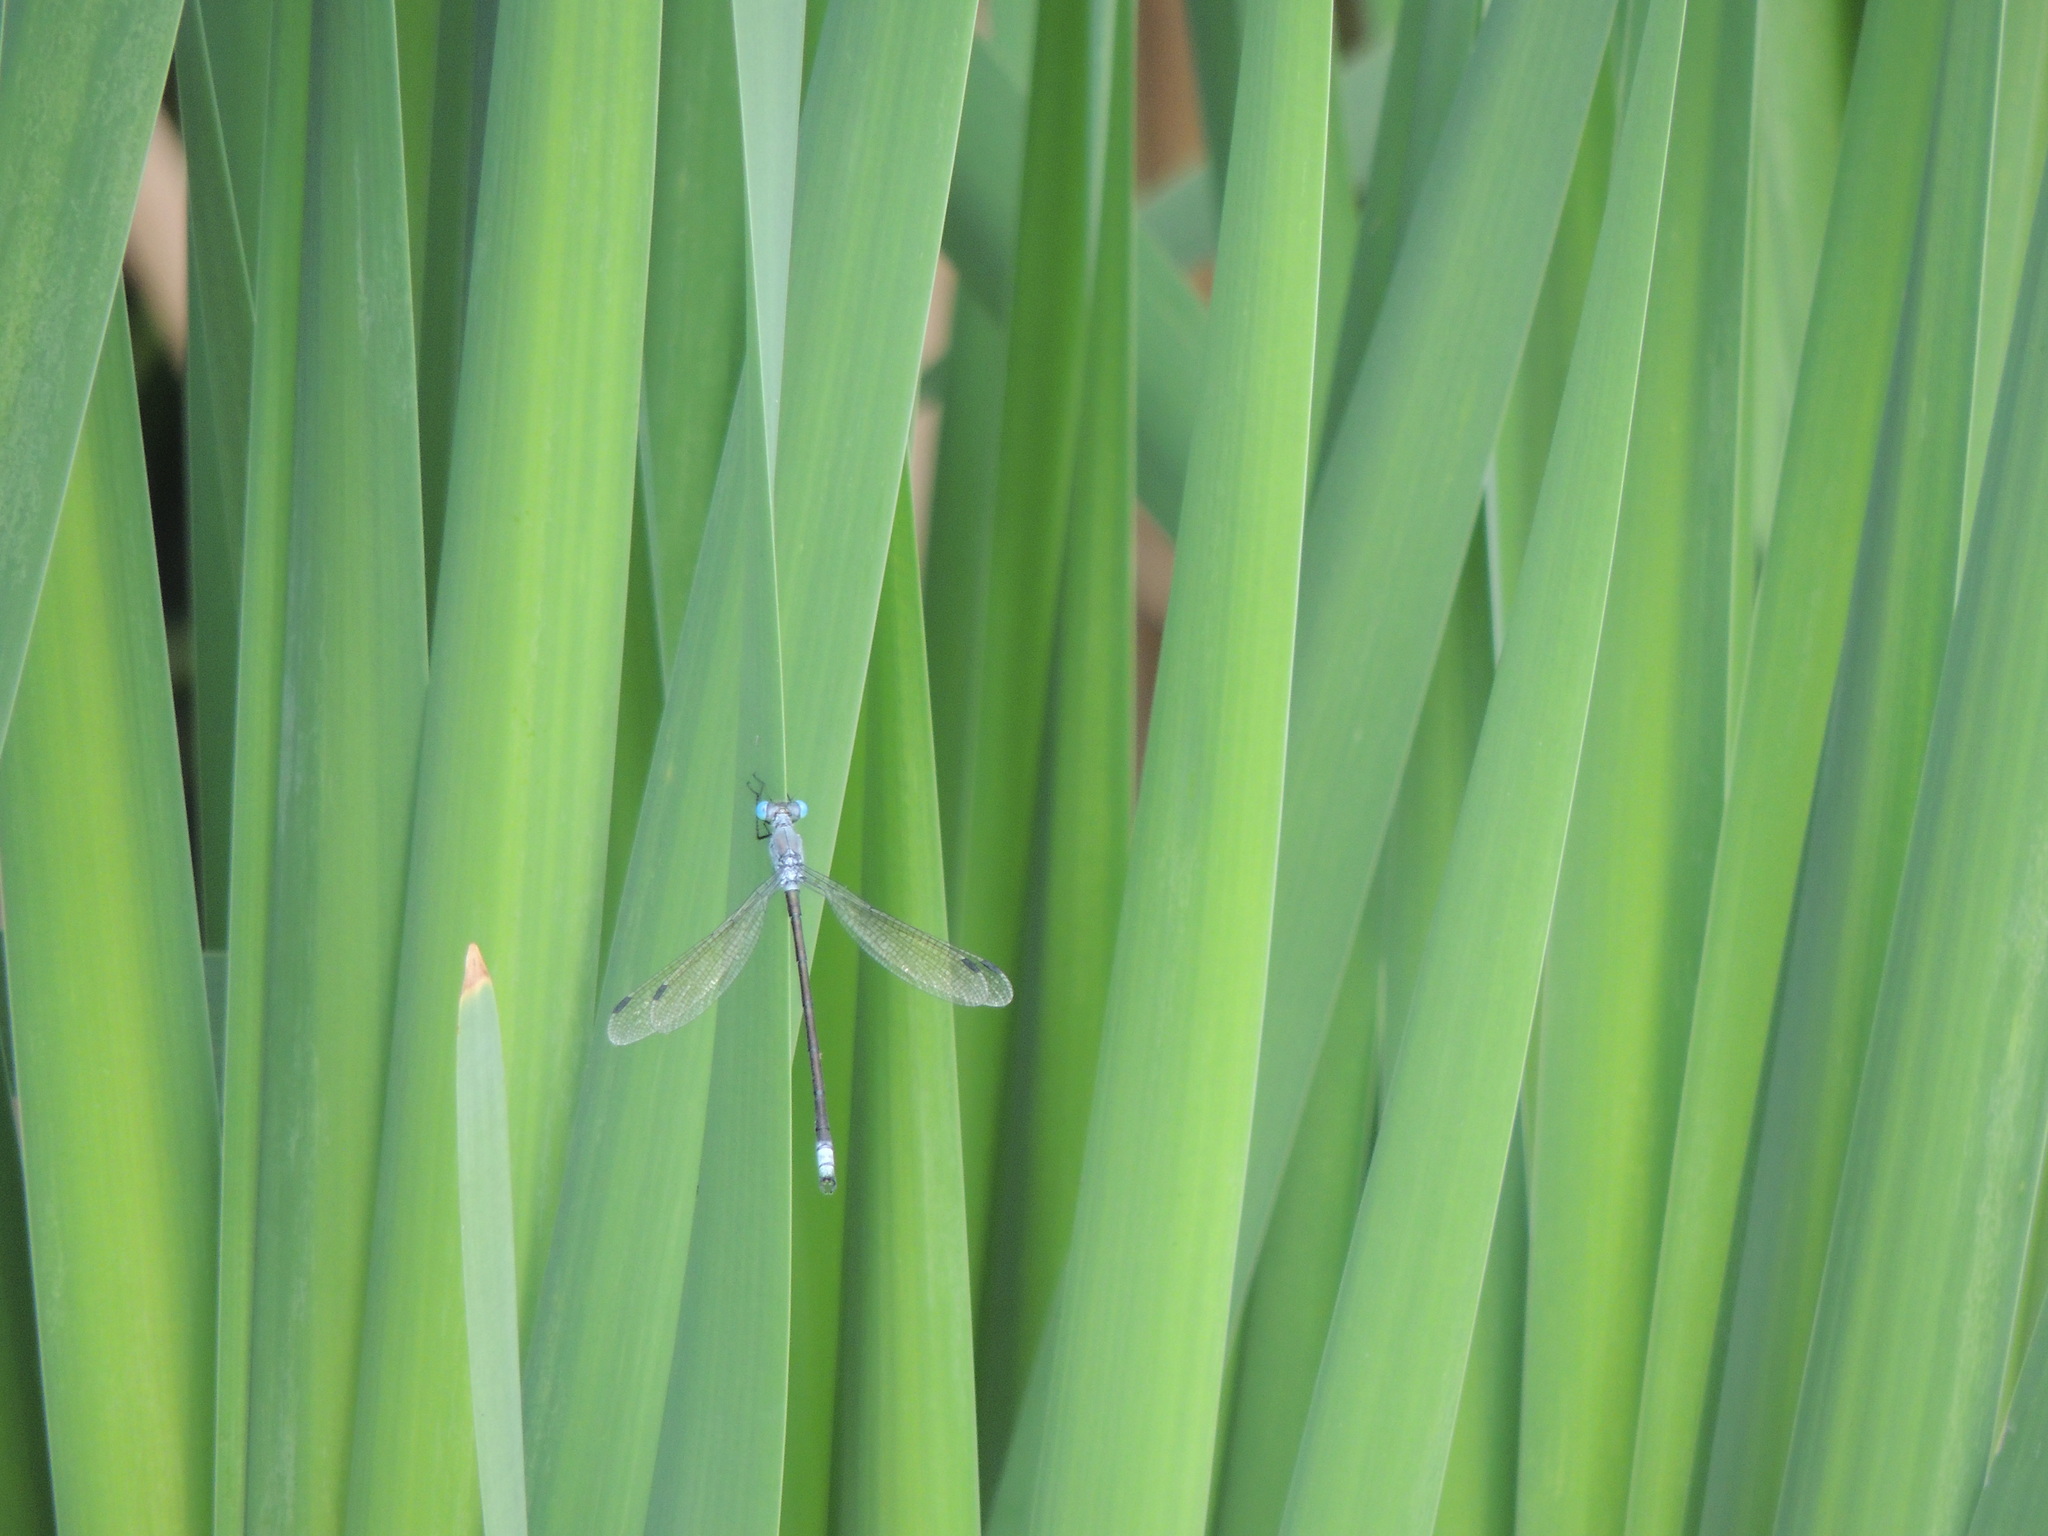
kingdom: Animalia
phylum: Arthropoda
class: Insecta
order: Odonata
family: Lestidae
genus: Lestes
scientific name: Lestes eurinus
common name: Amber-winged spreadwing
